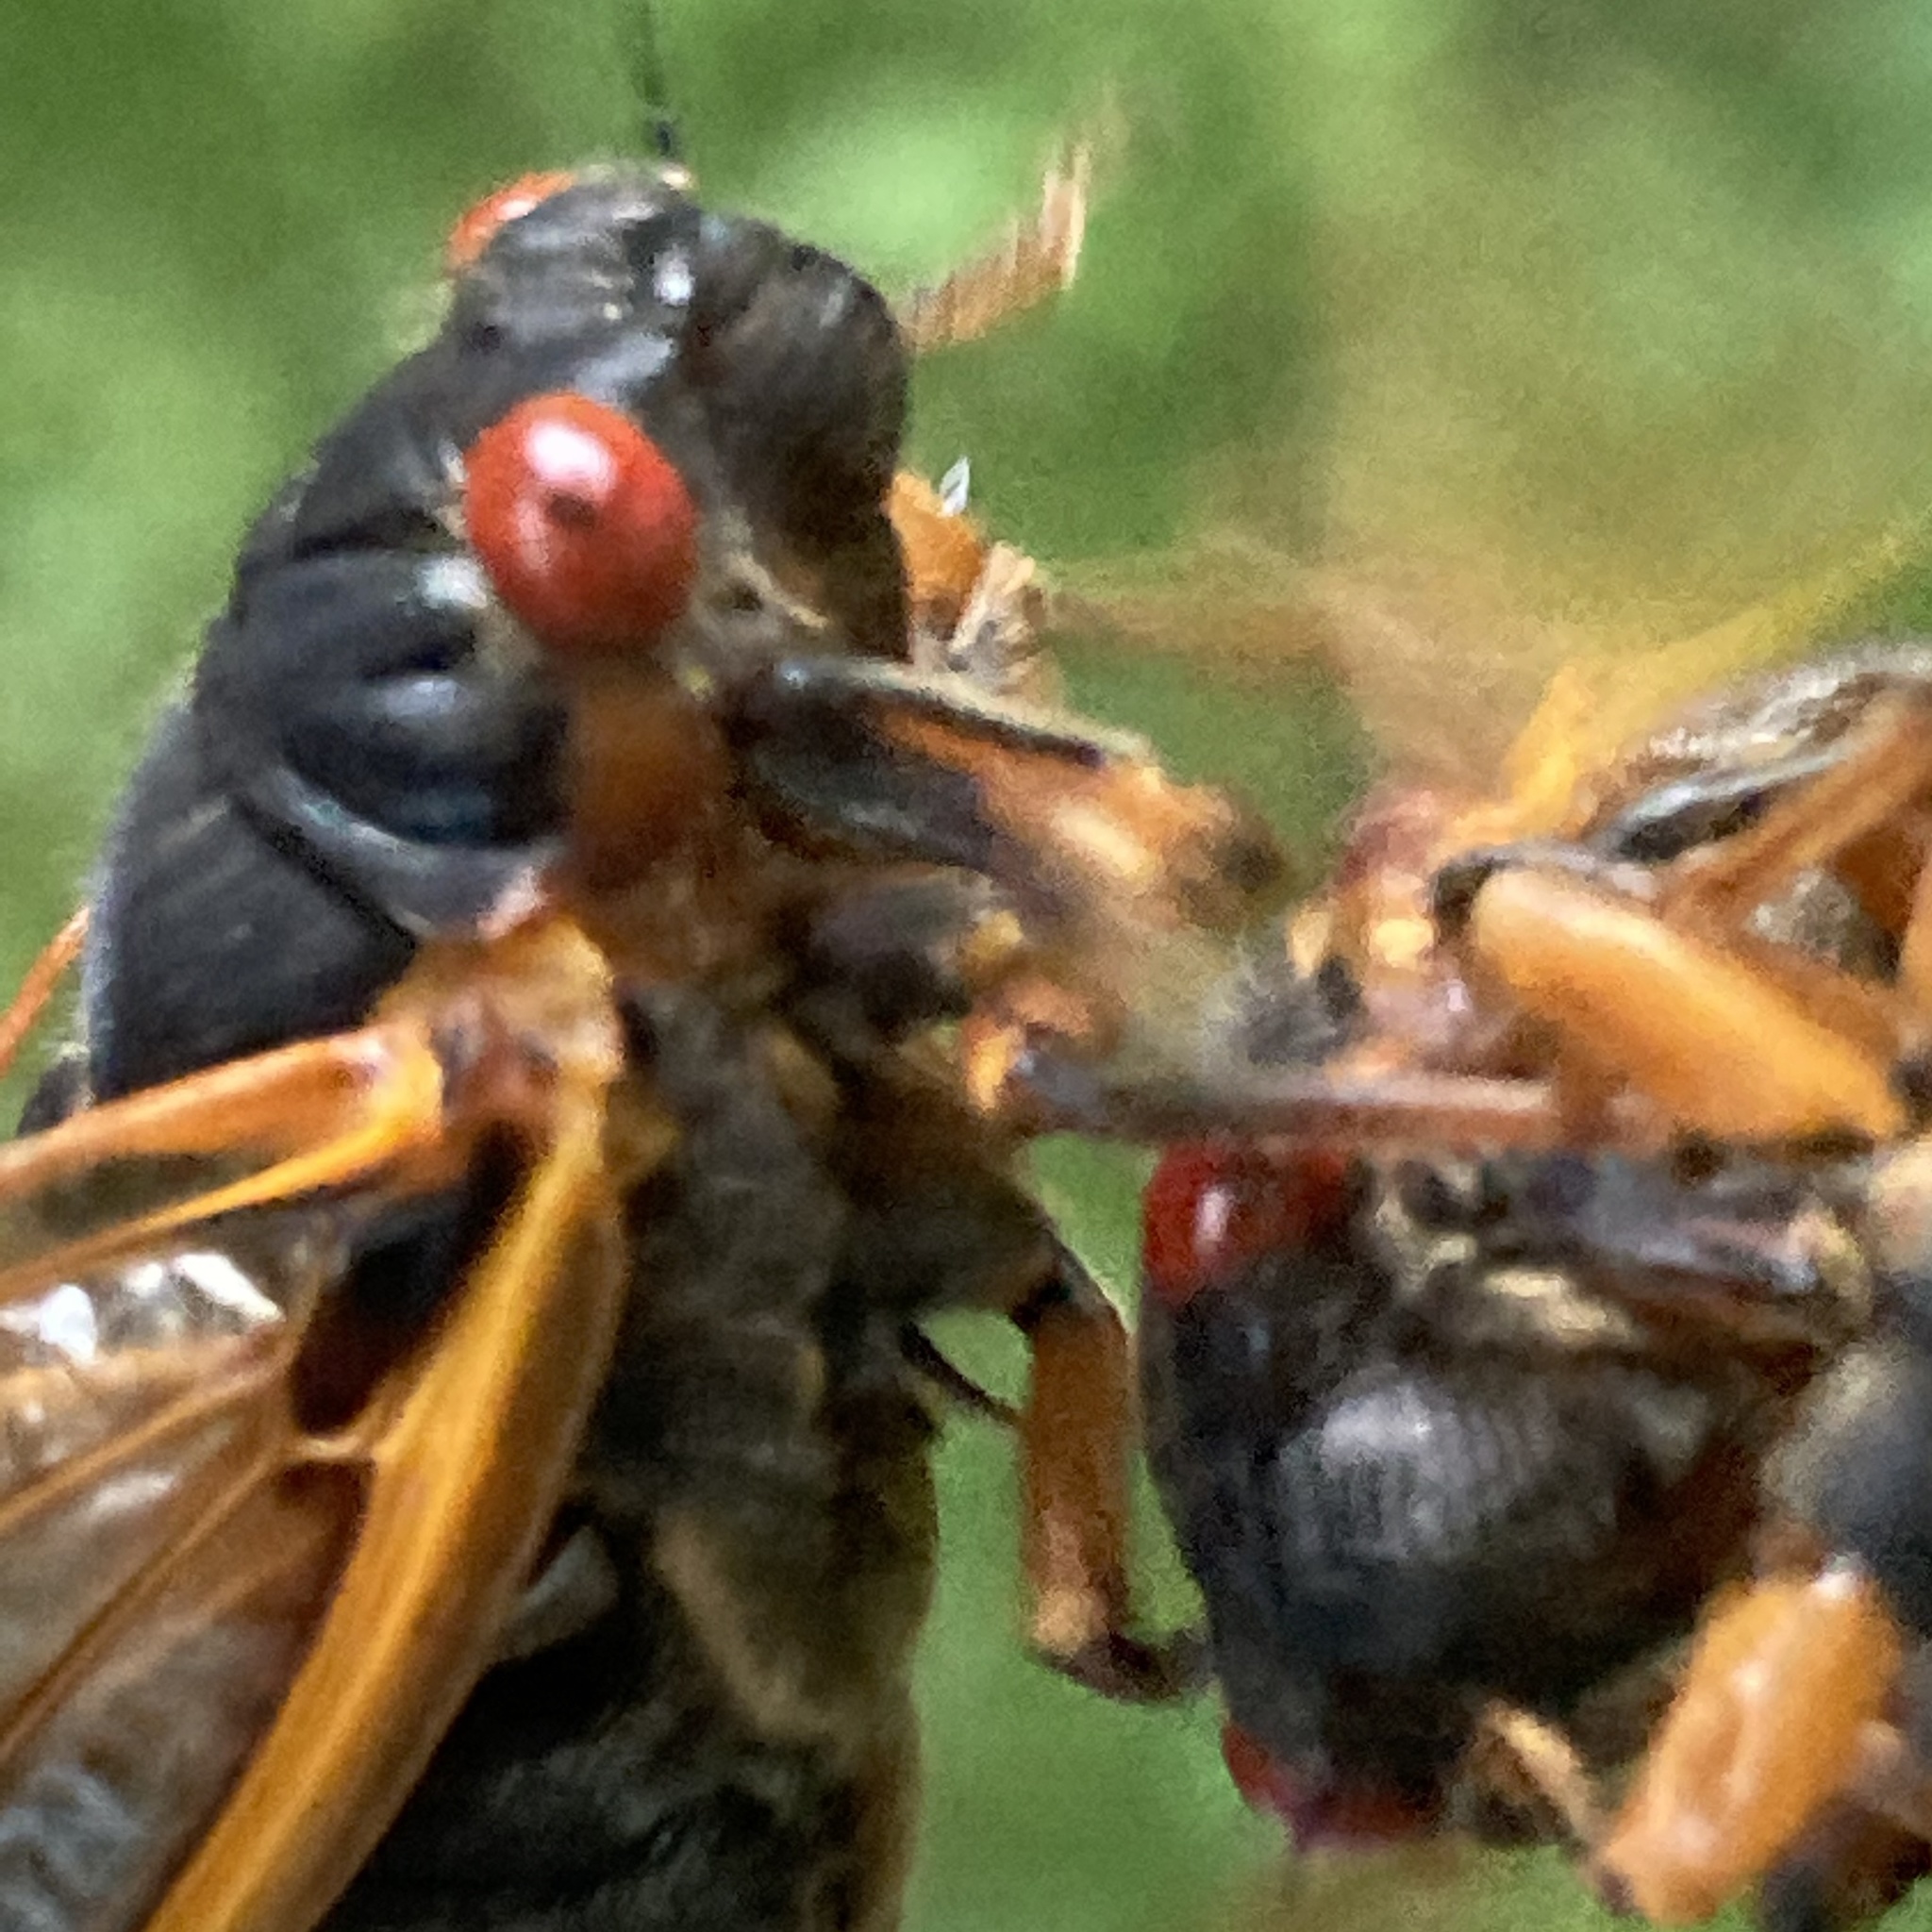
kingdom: Animalia
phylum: Arthropoda
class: Insecta
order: Hemiptera
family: Cicadidae
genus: Magicicada
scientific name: Magicicada septendecim
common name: Periodical cicada
